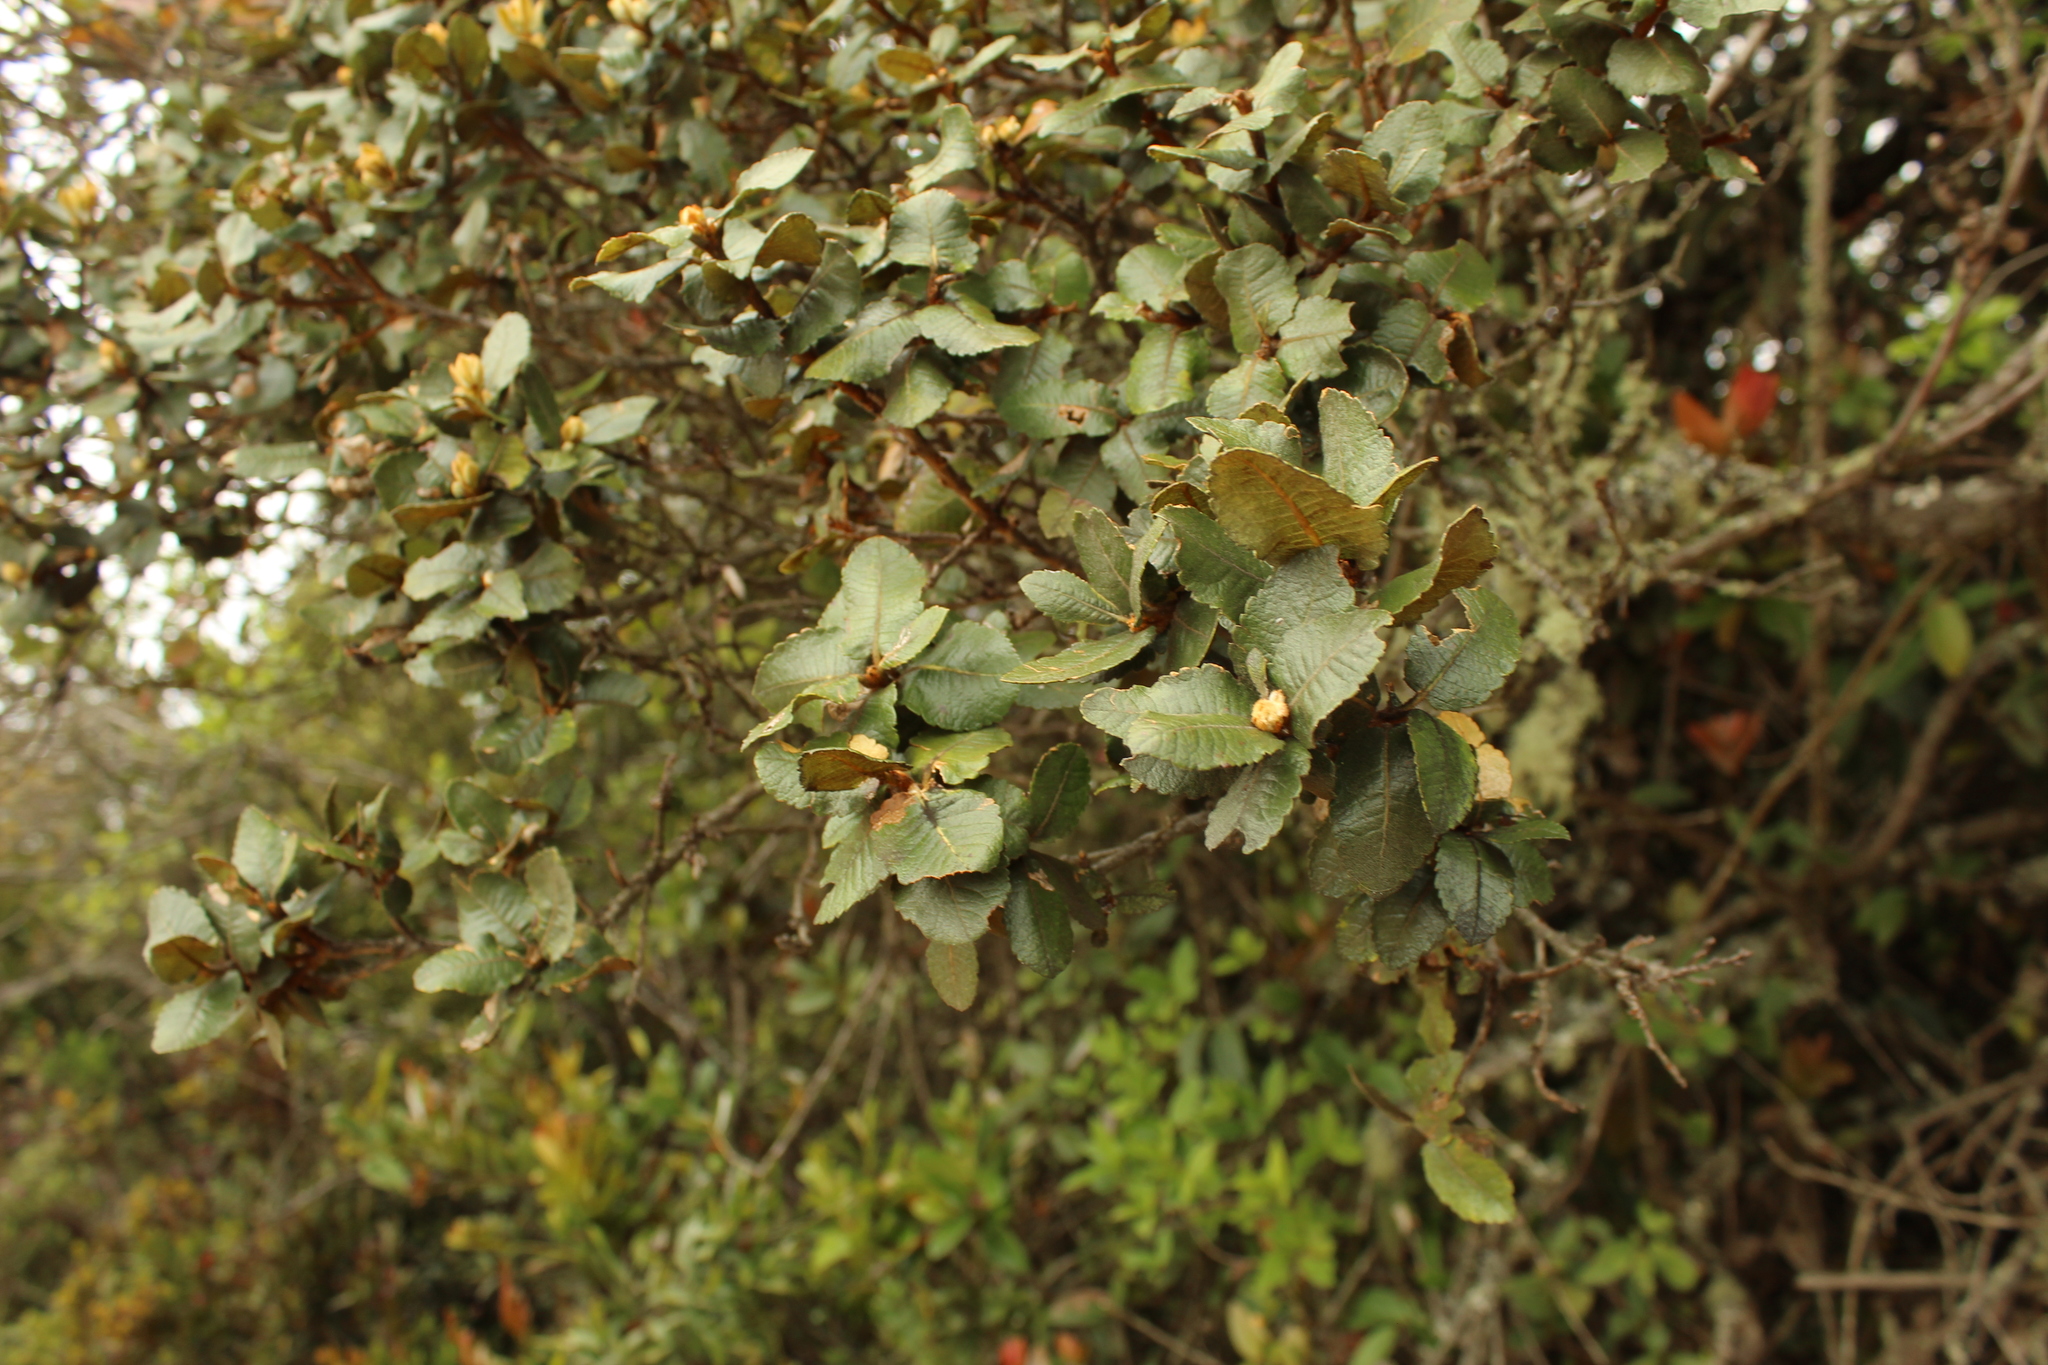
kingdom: Plantae
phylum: Tracheophyta
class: Magnoliopsida
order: Rosales
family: Rosaceae
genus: Hesperomeles
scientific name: Hesperomeles goudotiana
